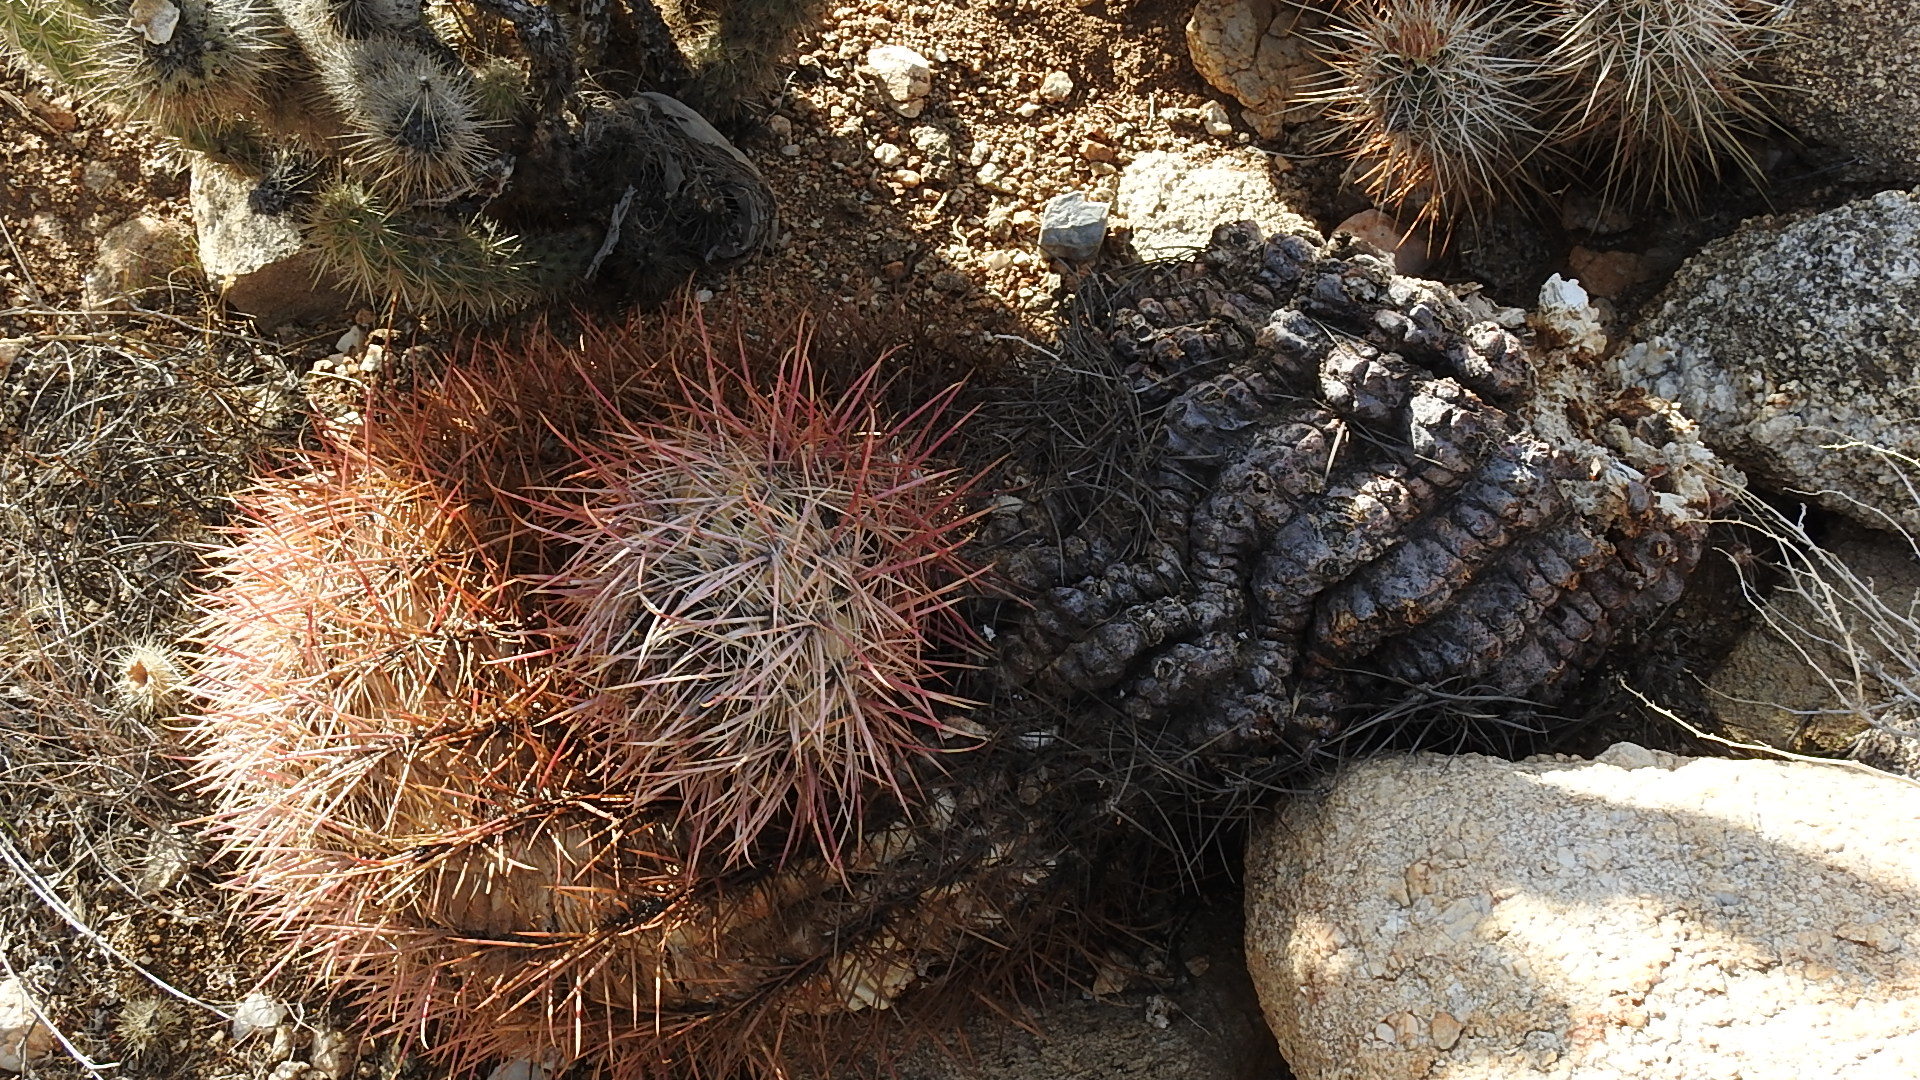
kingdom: Plantae
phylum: Tracheophyta
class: Magnoliopsida
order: Caryophyllales
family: Cactaceae
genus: Ferocactus
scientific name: Ferocactus cylindraceus
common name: California barrel cactus
